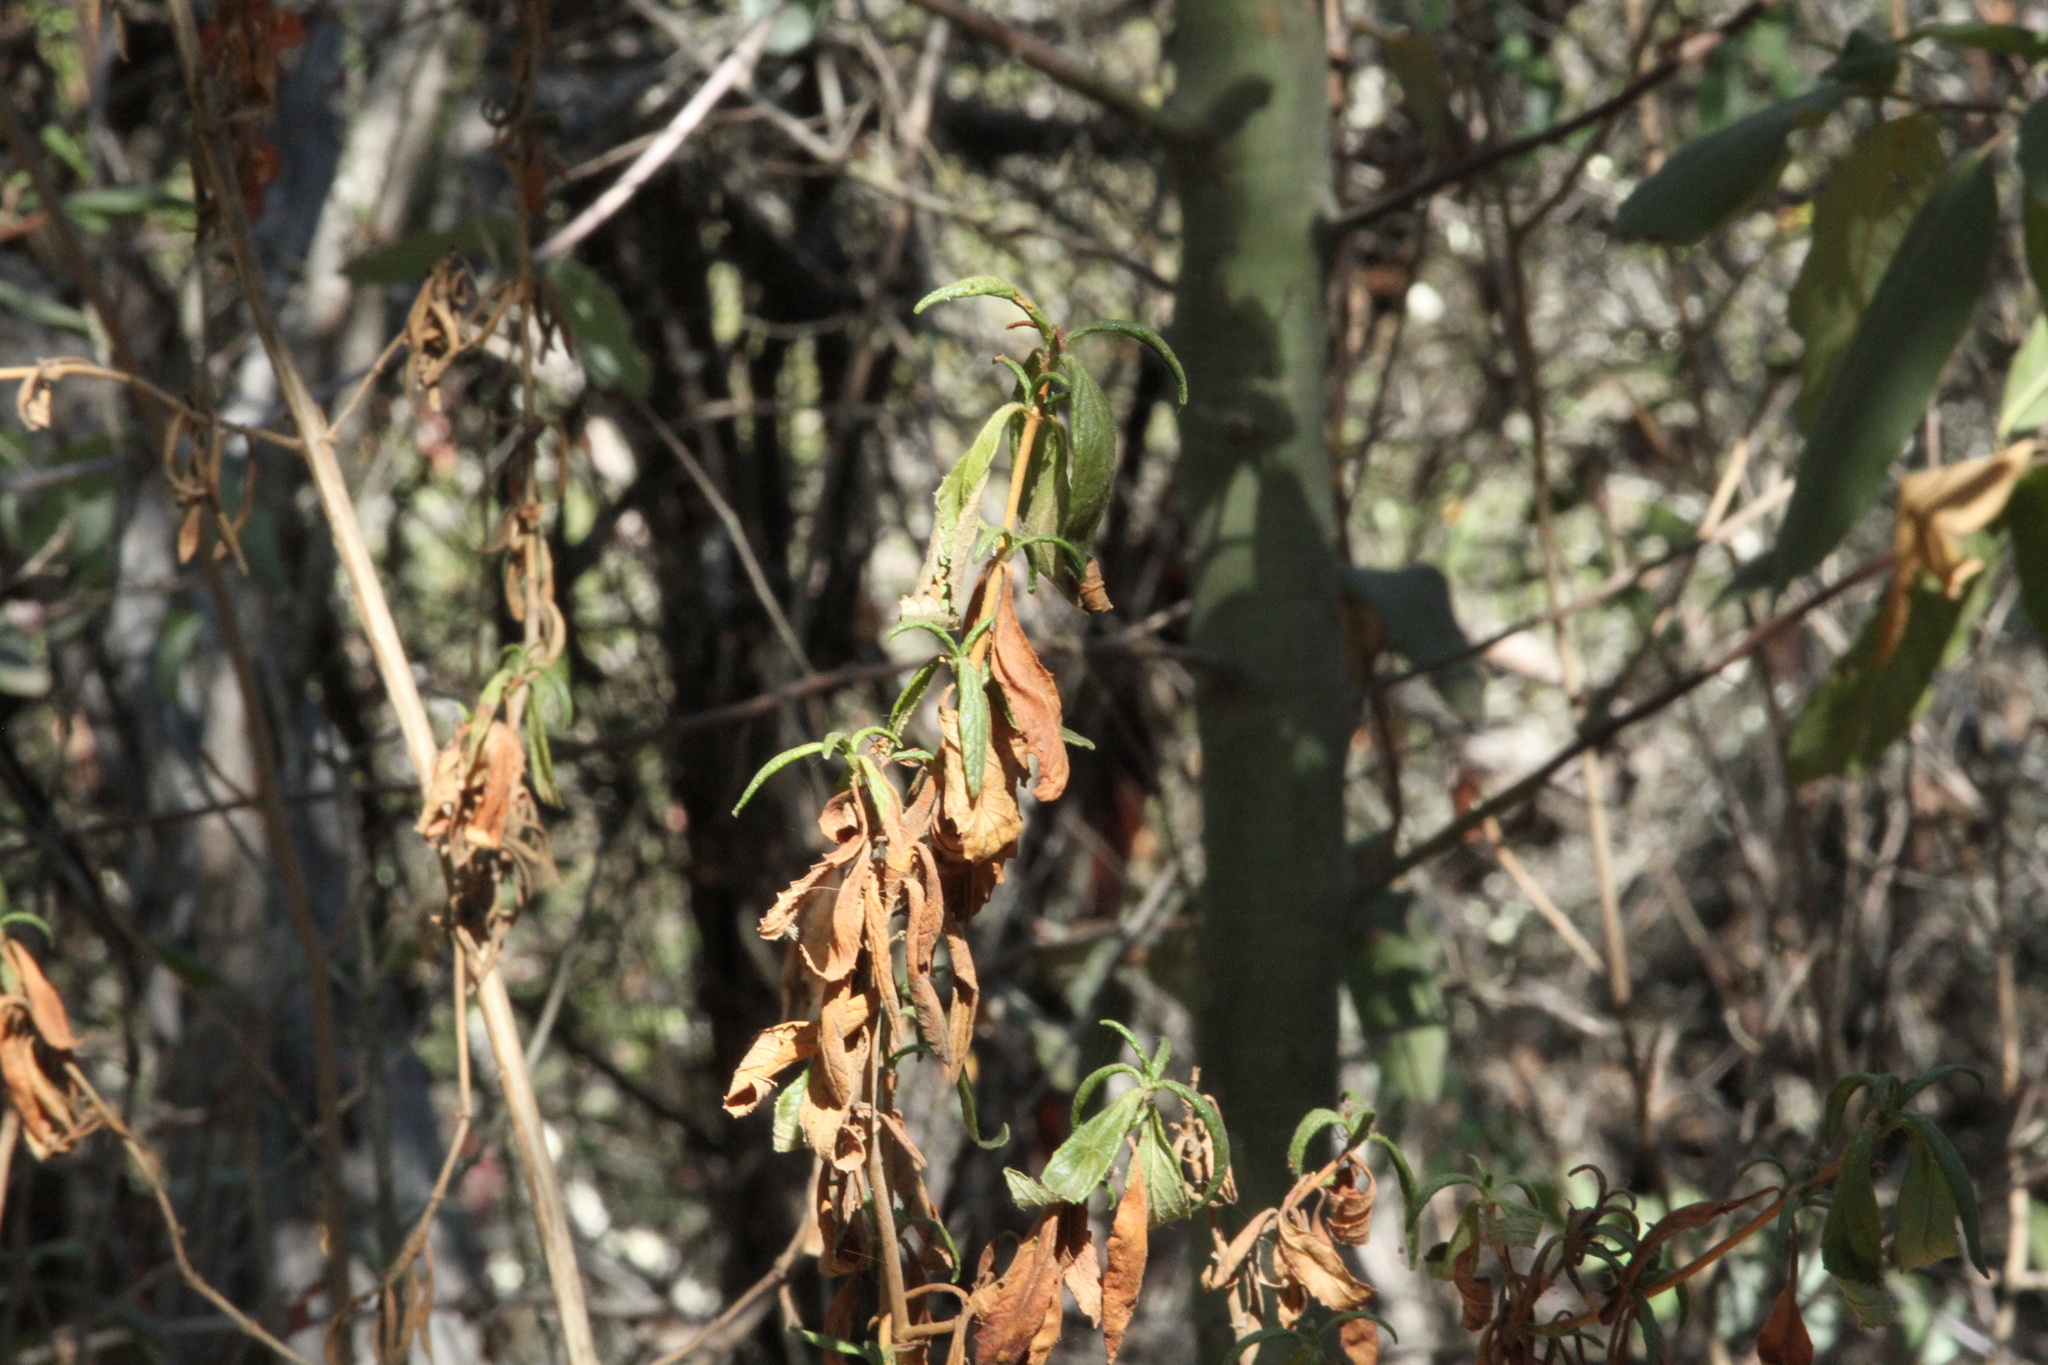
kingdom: Plantae
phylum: Tracheophyta
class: Magnoliopsida
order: Lamiales
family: Phrymaceae
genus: Diplacus
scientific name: Diplacus aurantiacus
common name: Bush monkey-flower
